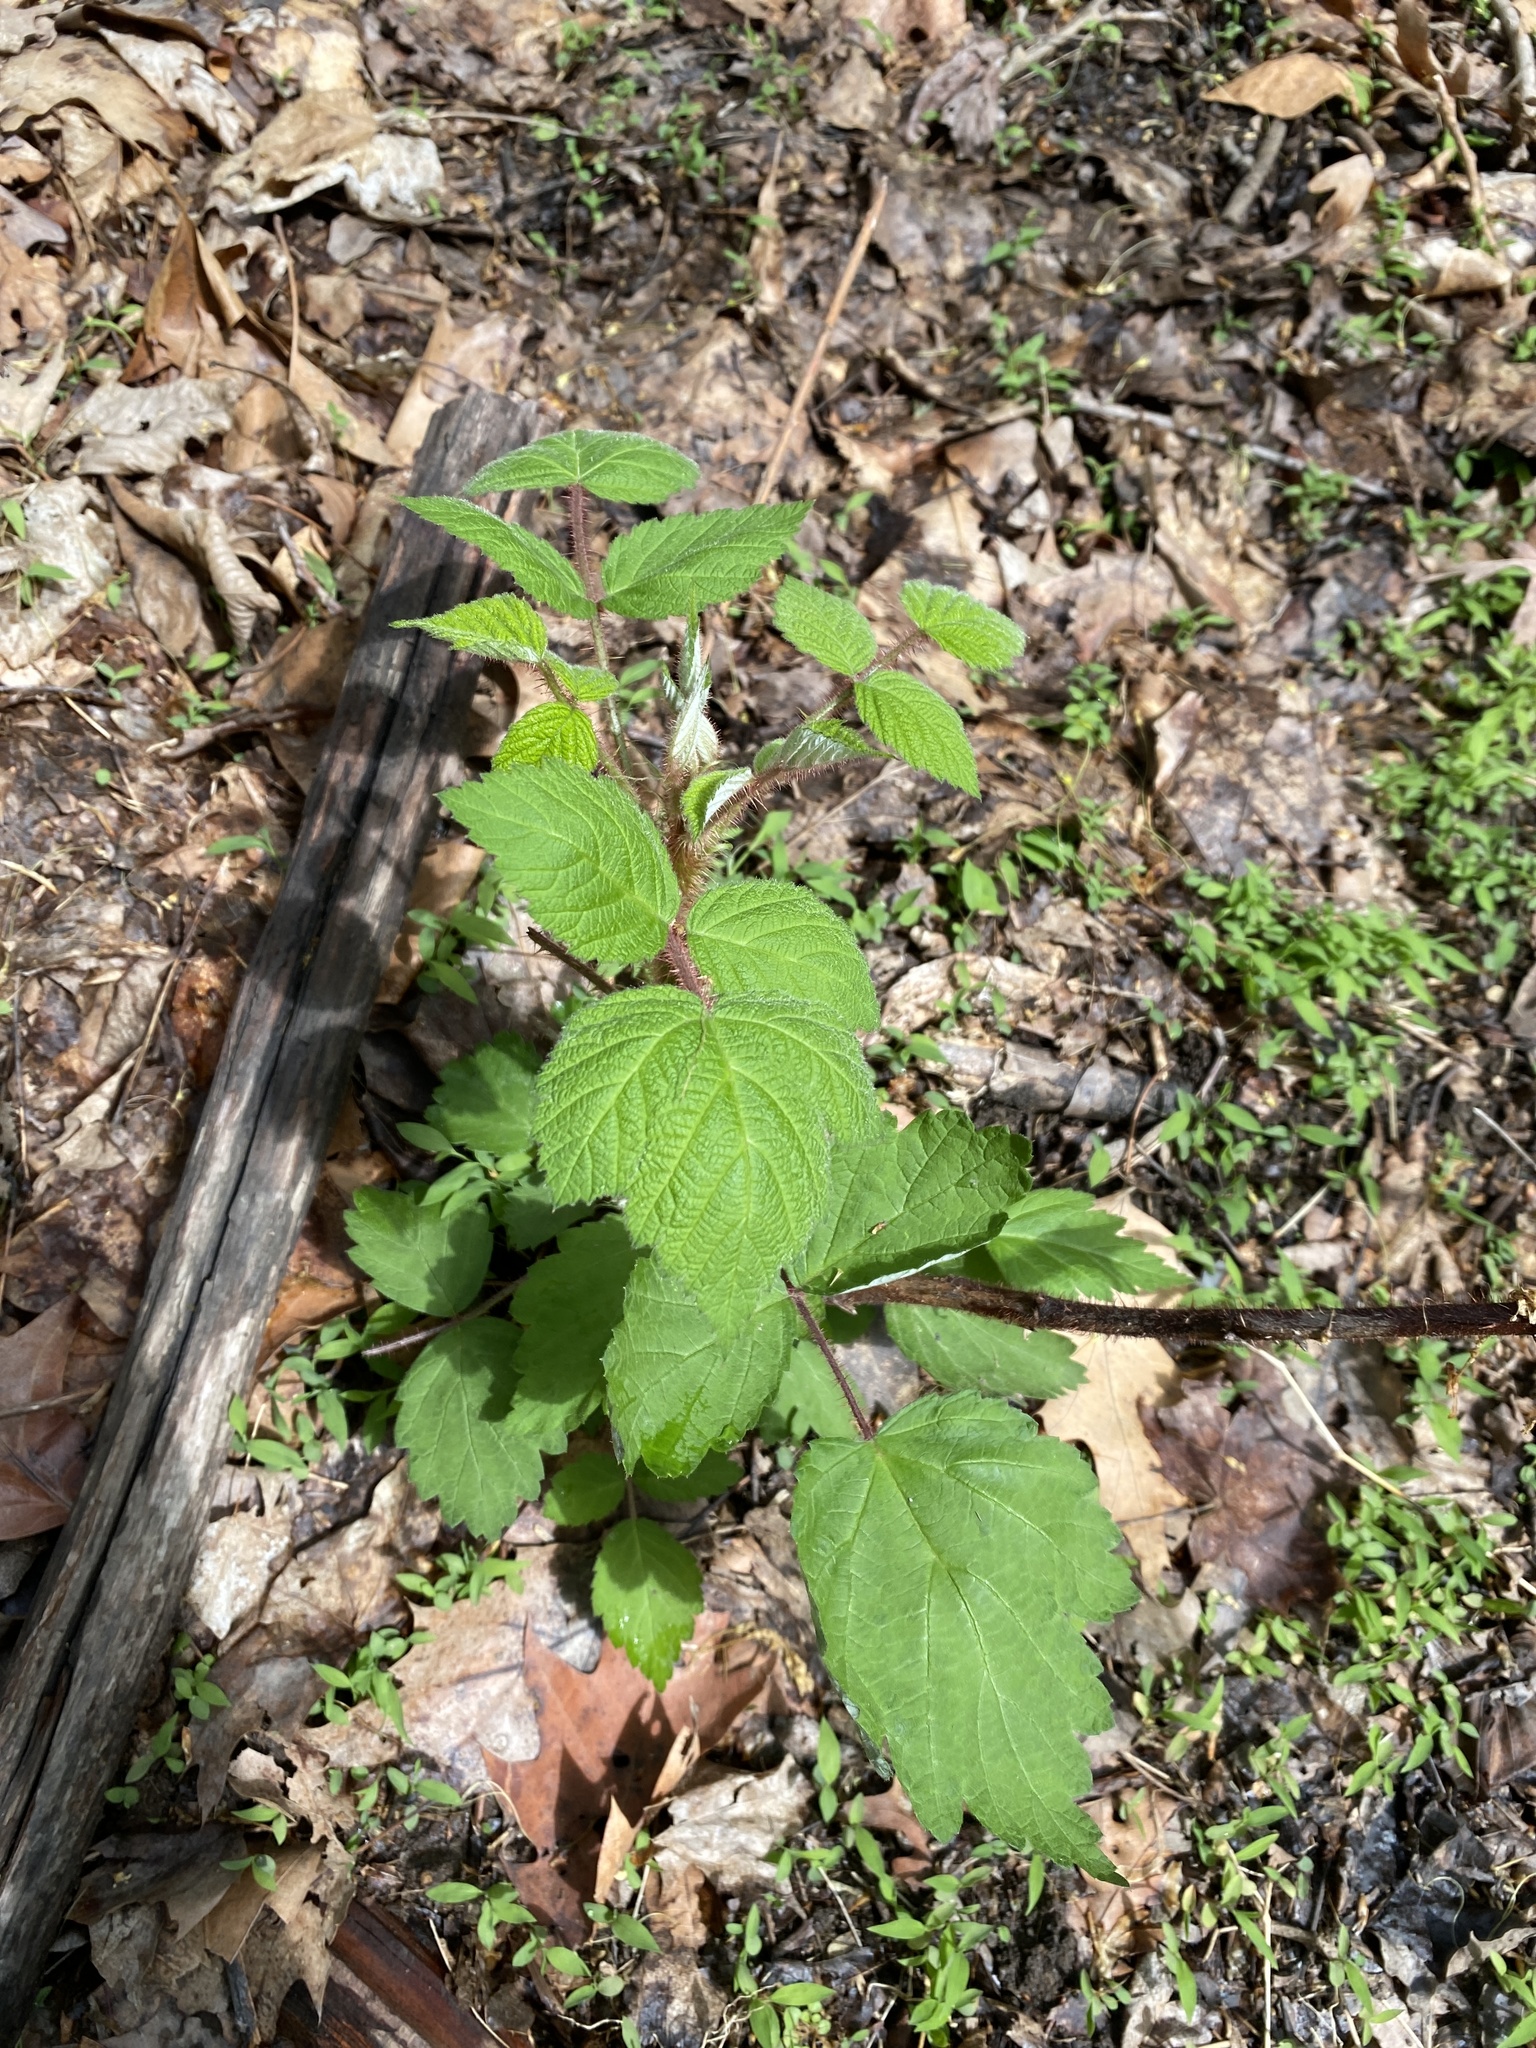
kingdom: Plantae
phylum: Tracheophyta
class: Magnoliopsida
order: Rosales
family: Rosaceae
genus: Rubus
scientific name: Rubus phoenicolasius
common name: Japanese wineberry
